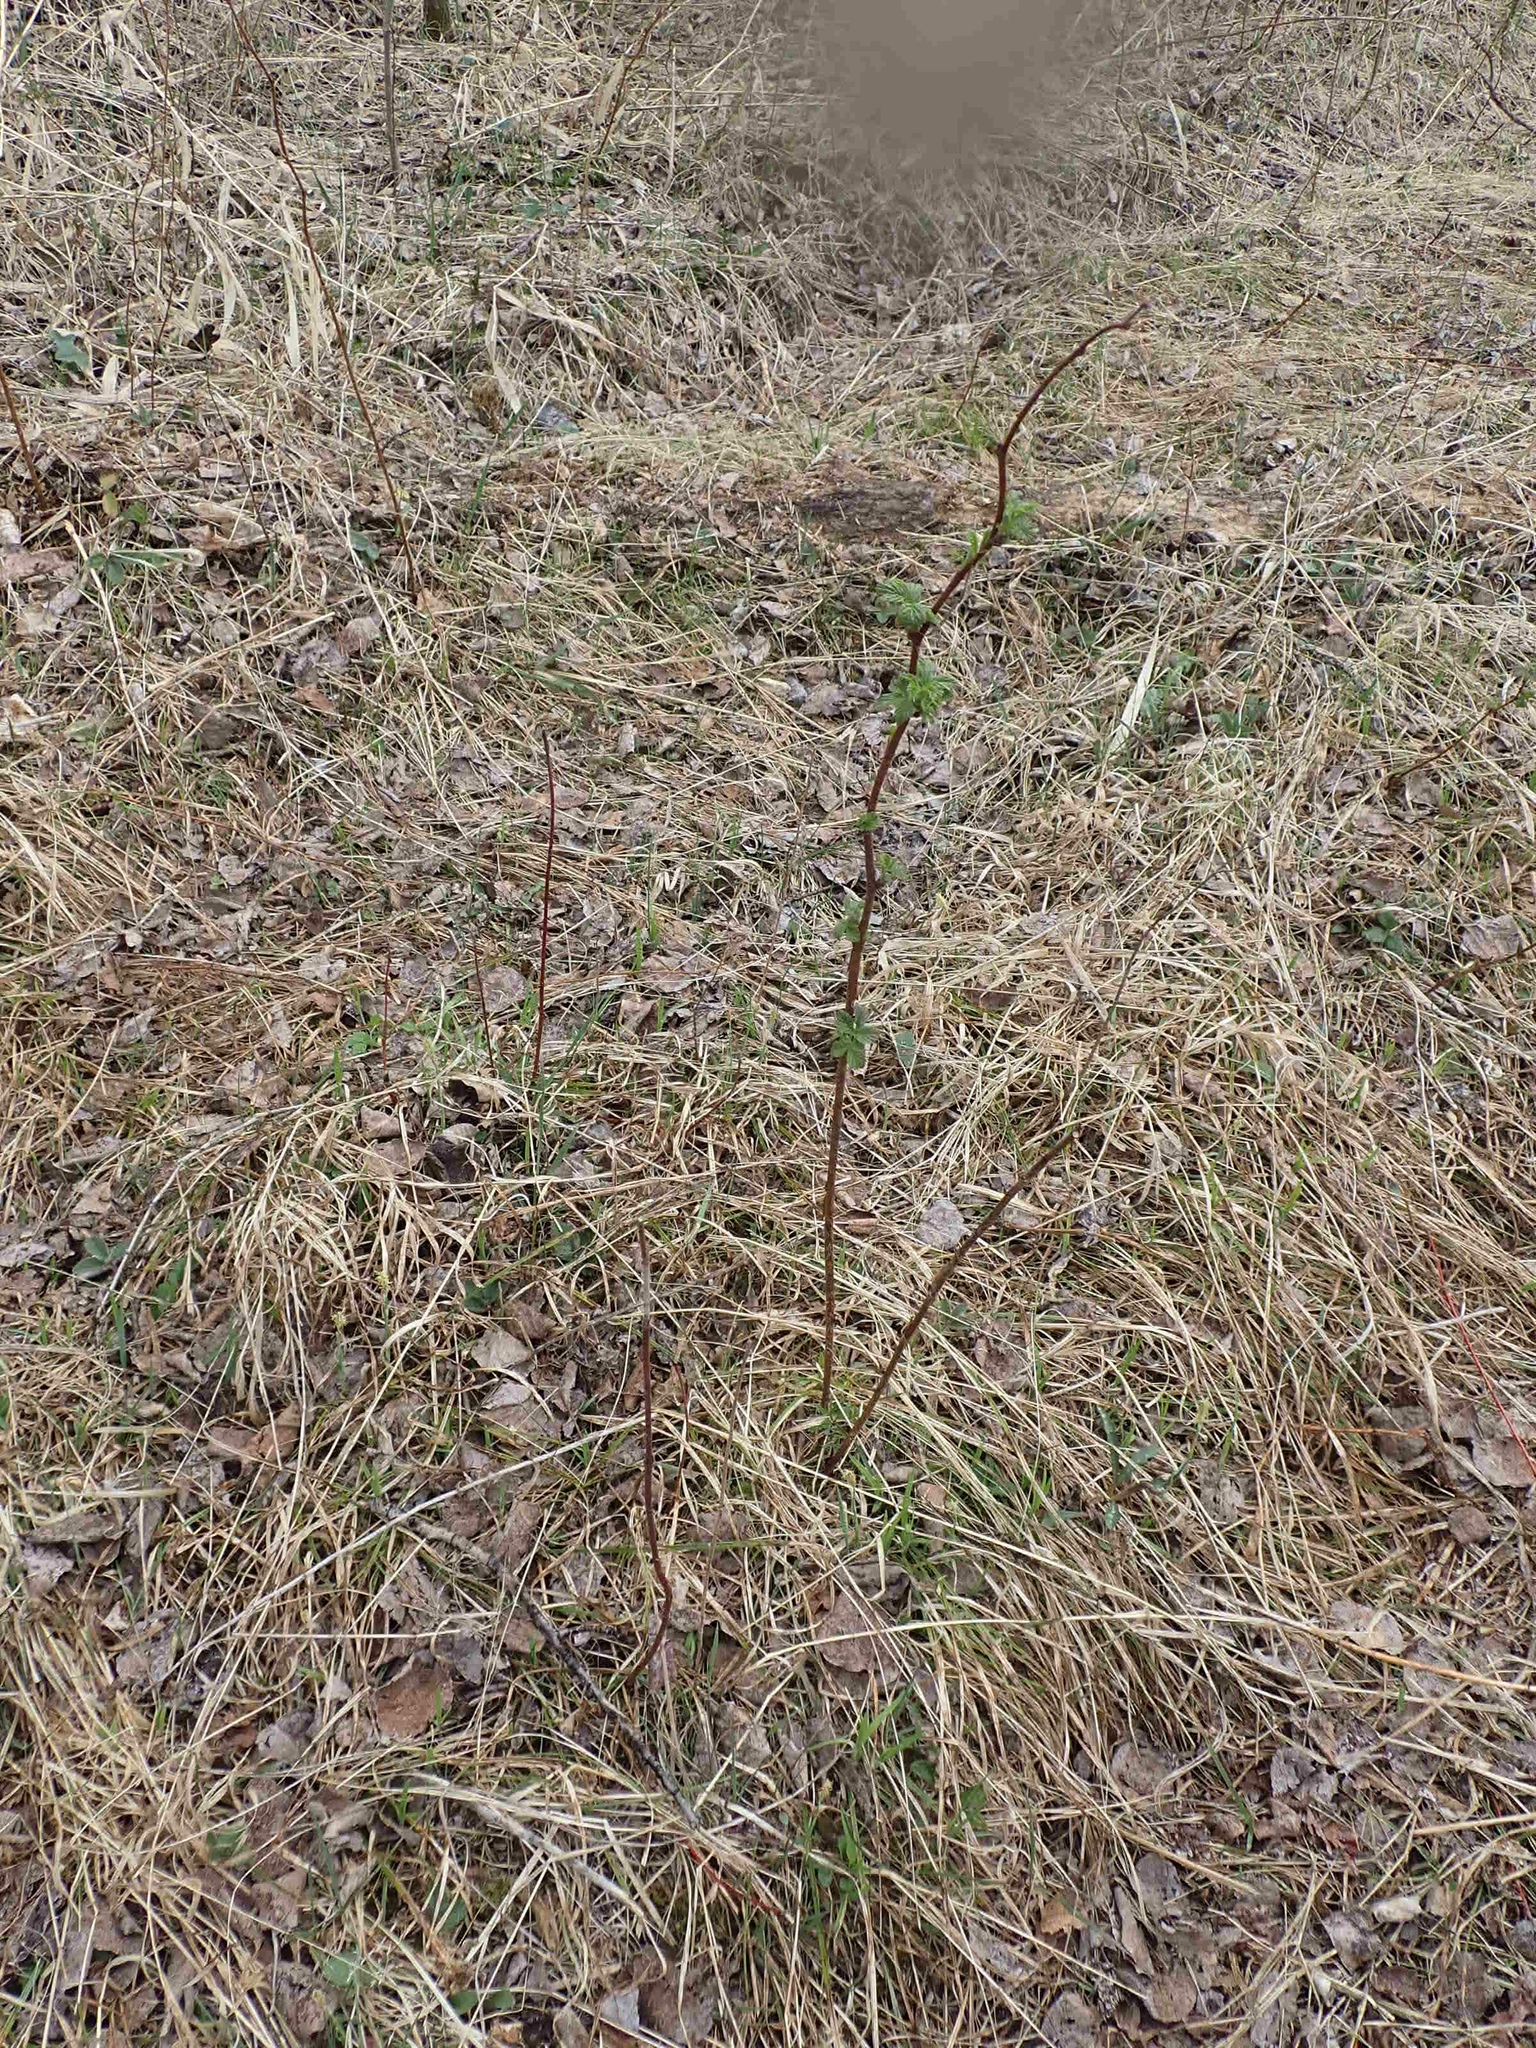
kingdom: Plantae
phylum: Tracheophyta
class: Magnoliopsida
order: Rosales
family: Rosaceae
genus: Rubus
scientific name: Rubus idaeus
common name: Raspberry
